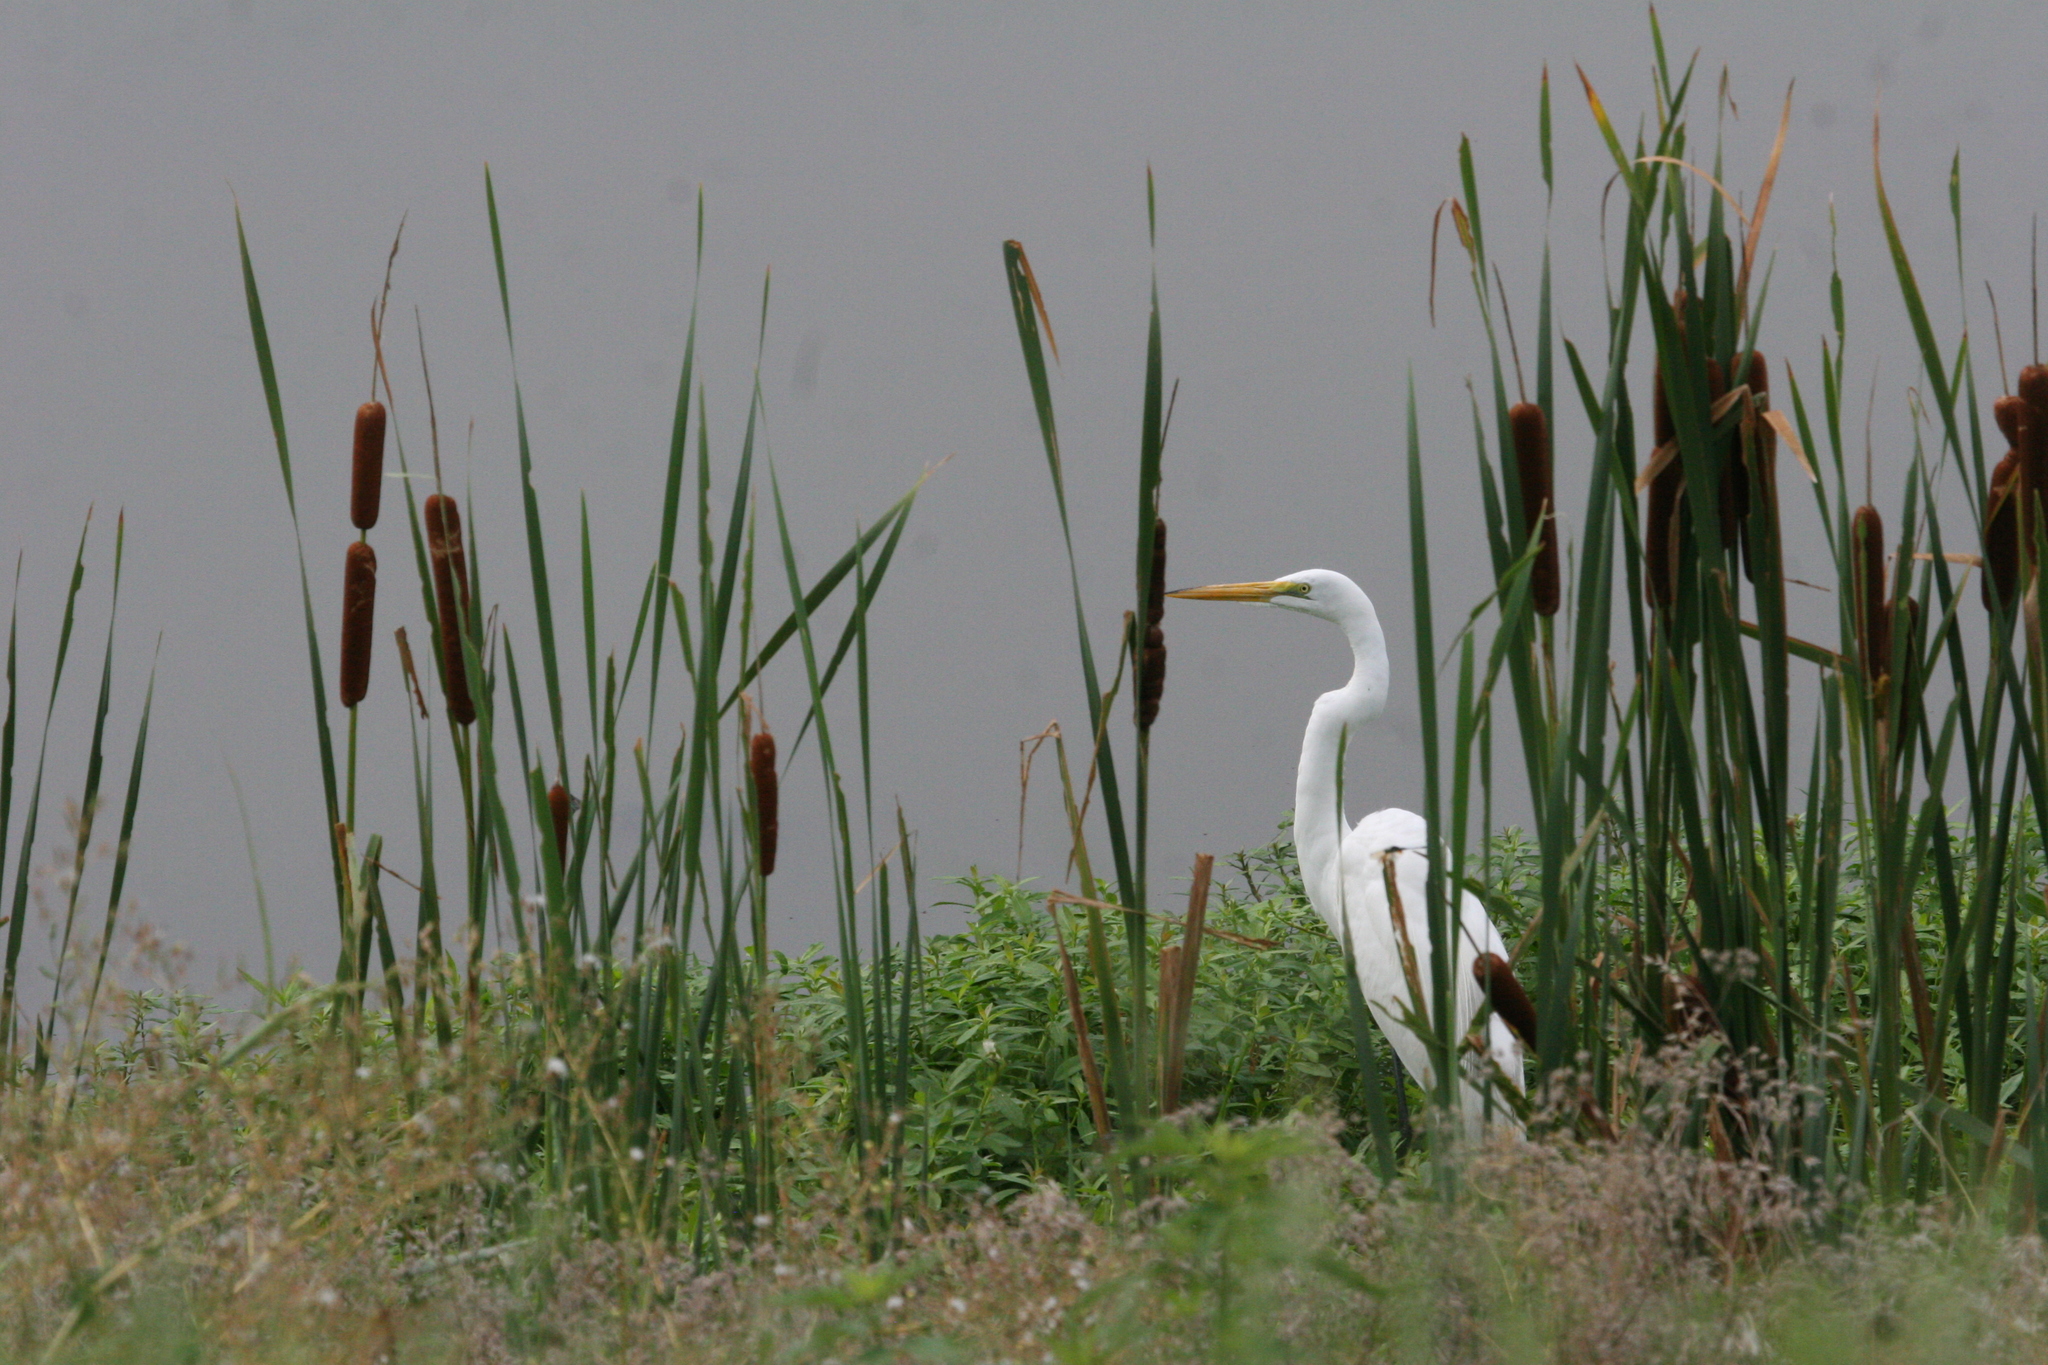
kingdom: Animalia
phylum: Chordata
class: Aves
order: Pelecaniformes
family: Ardeidae
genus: Ardea
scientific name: Ardea alba
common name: Great egret
